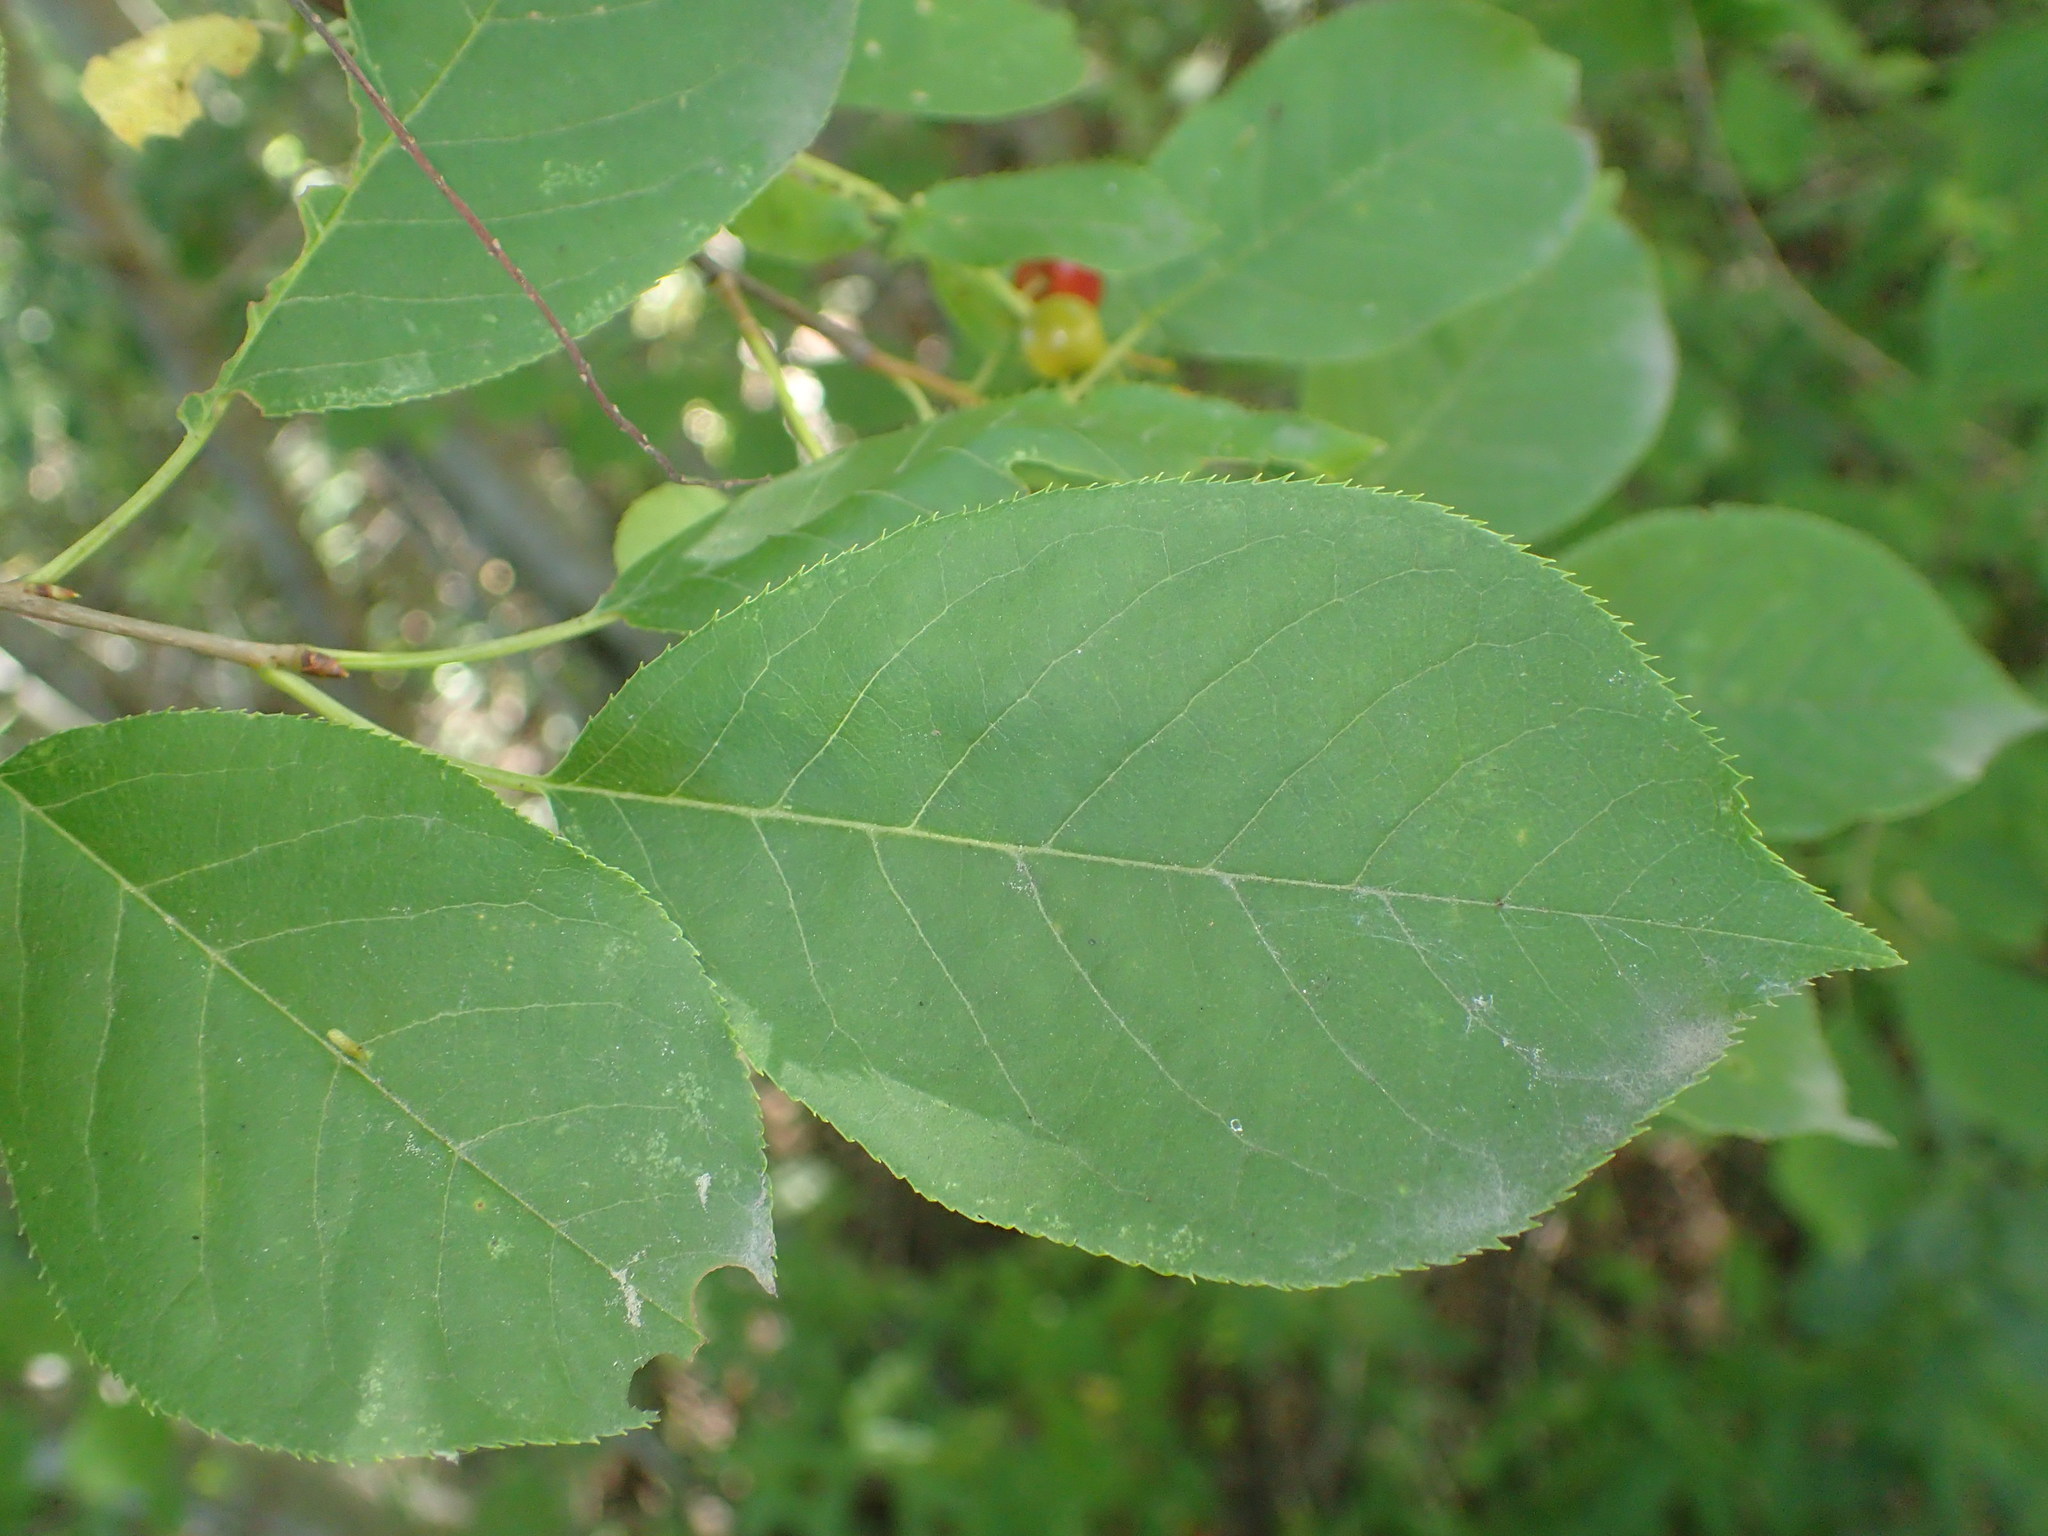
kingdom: Plantae
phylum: Tracheophyta
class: Magnoliopsida
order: Rosales
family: Rosaceae
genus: Prunus
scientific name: Prunus virginiana
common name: Chokecherry
